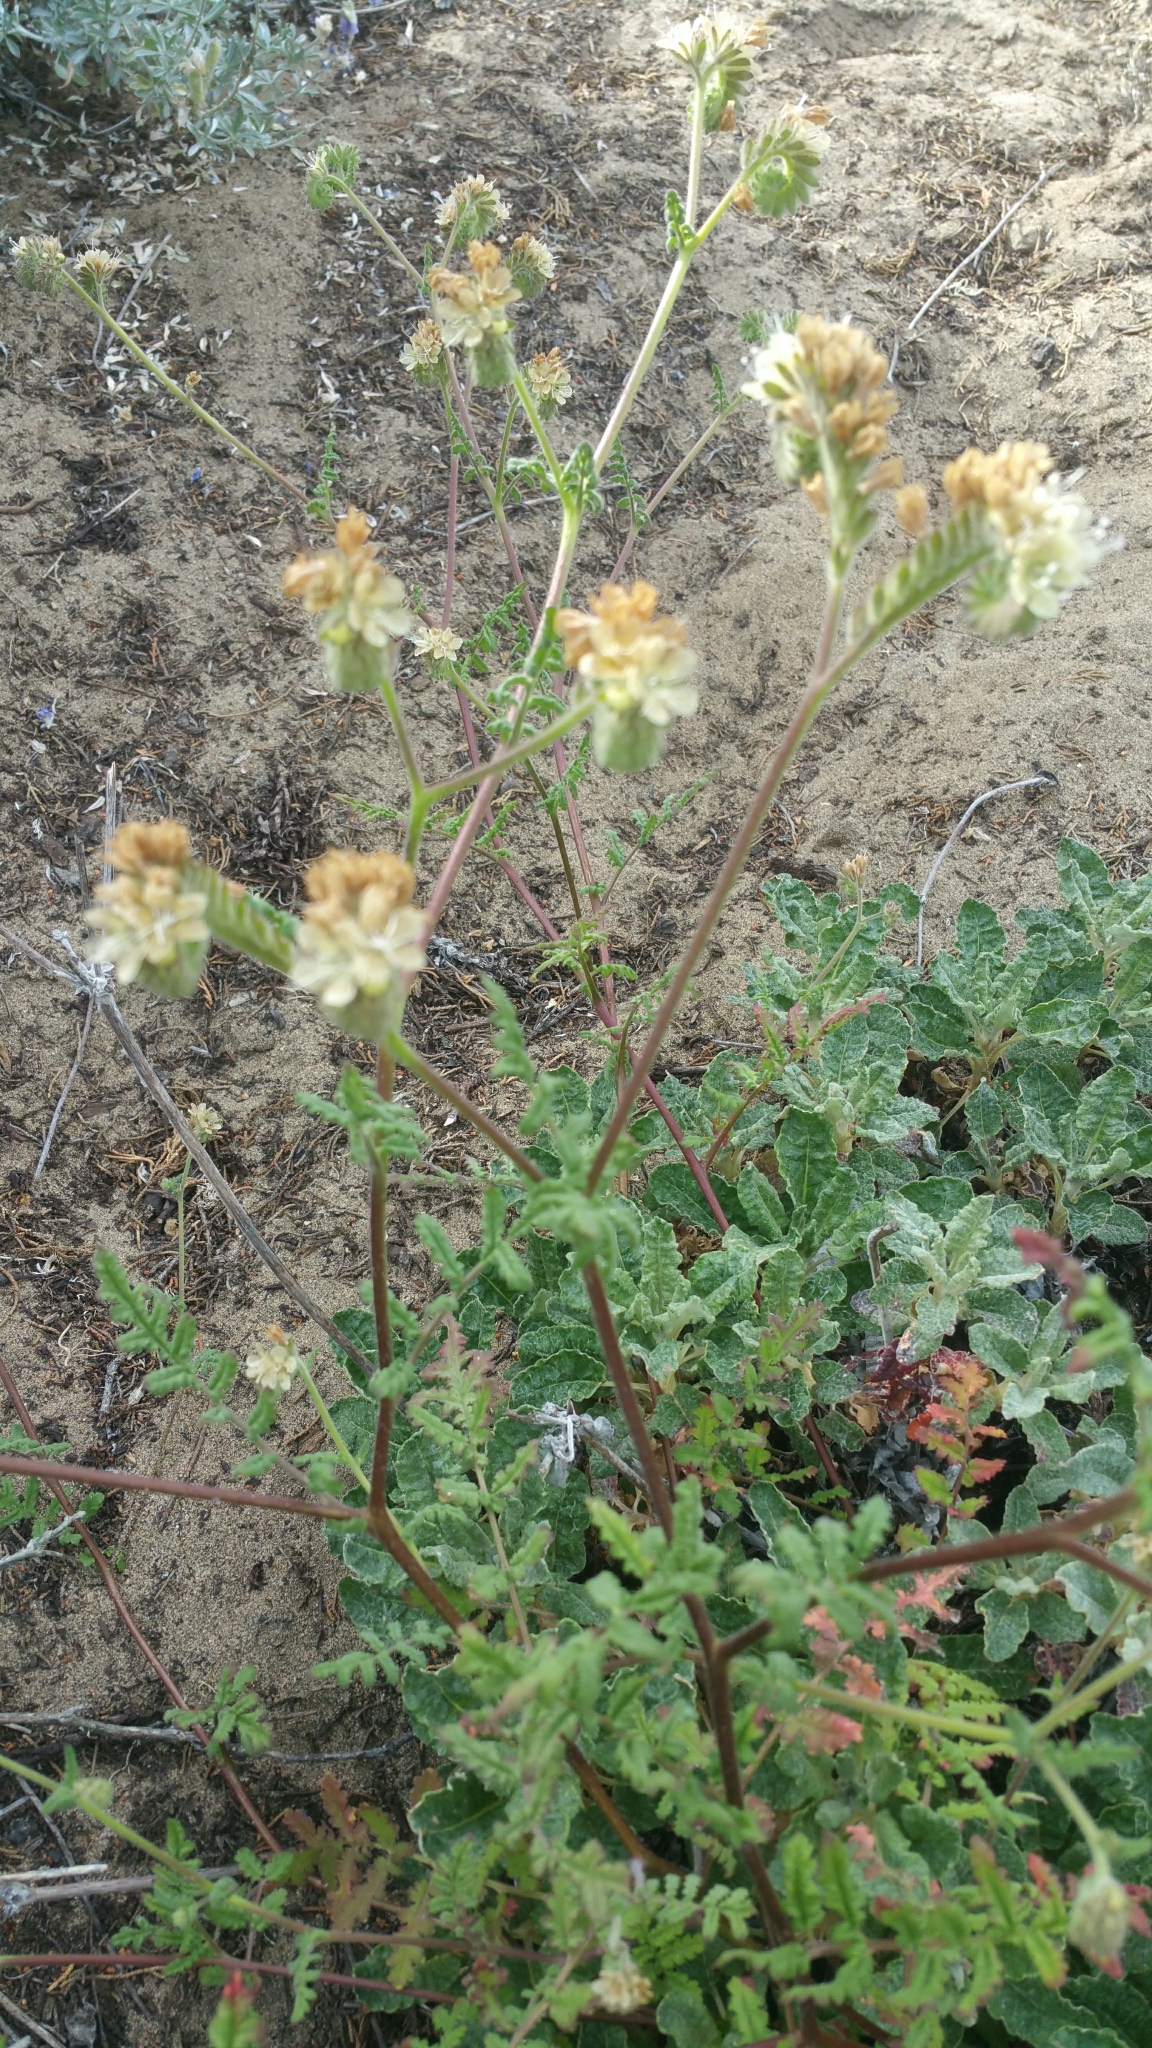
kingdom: Plantae
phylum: Tracheophyta
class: Magnoliopsida
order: Boraginales
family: Hydrophyllaceae
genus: Phacelia
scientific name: Phacelia distans
